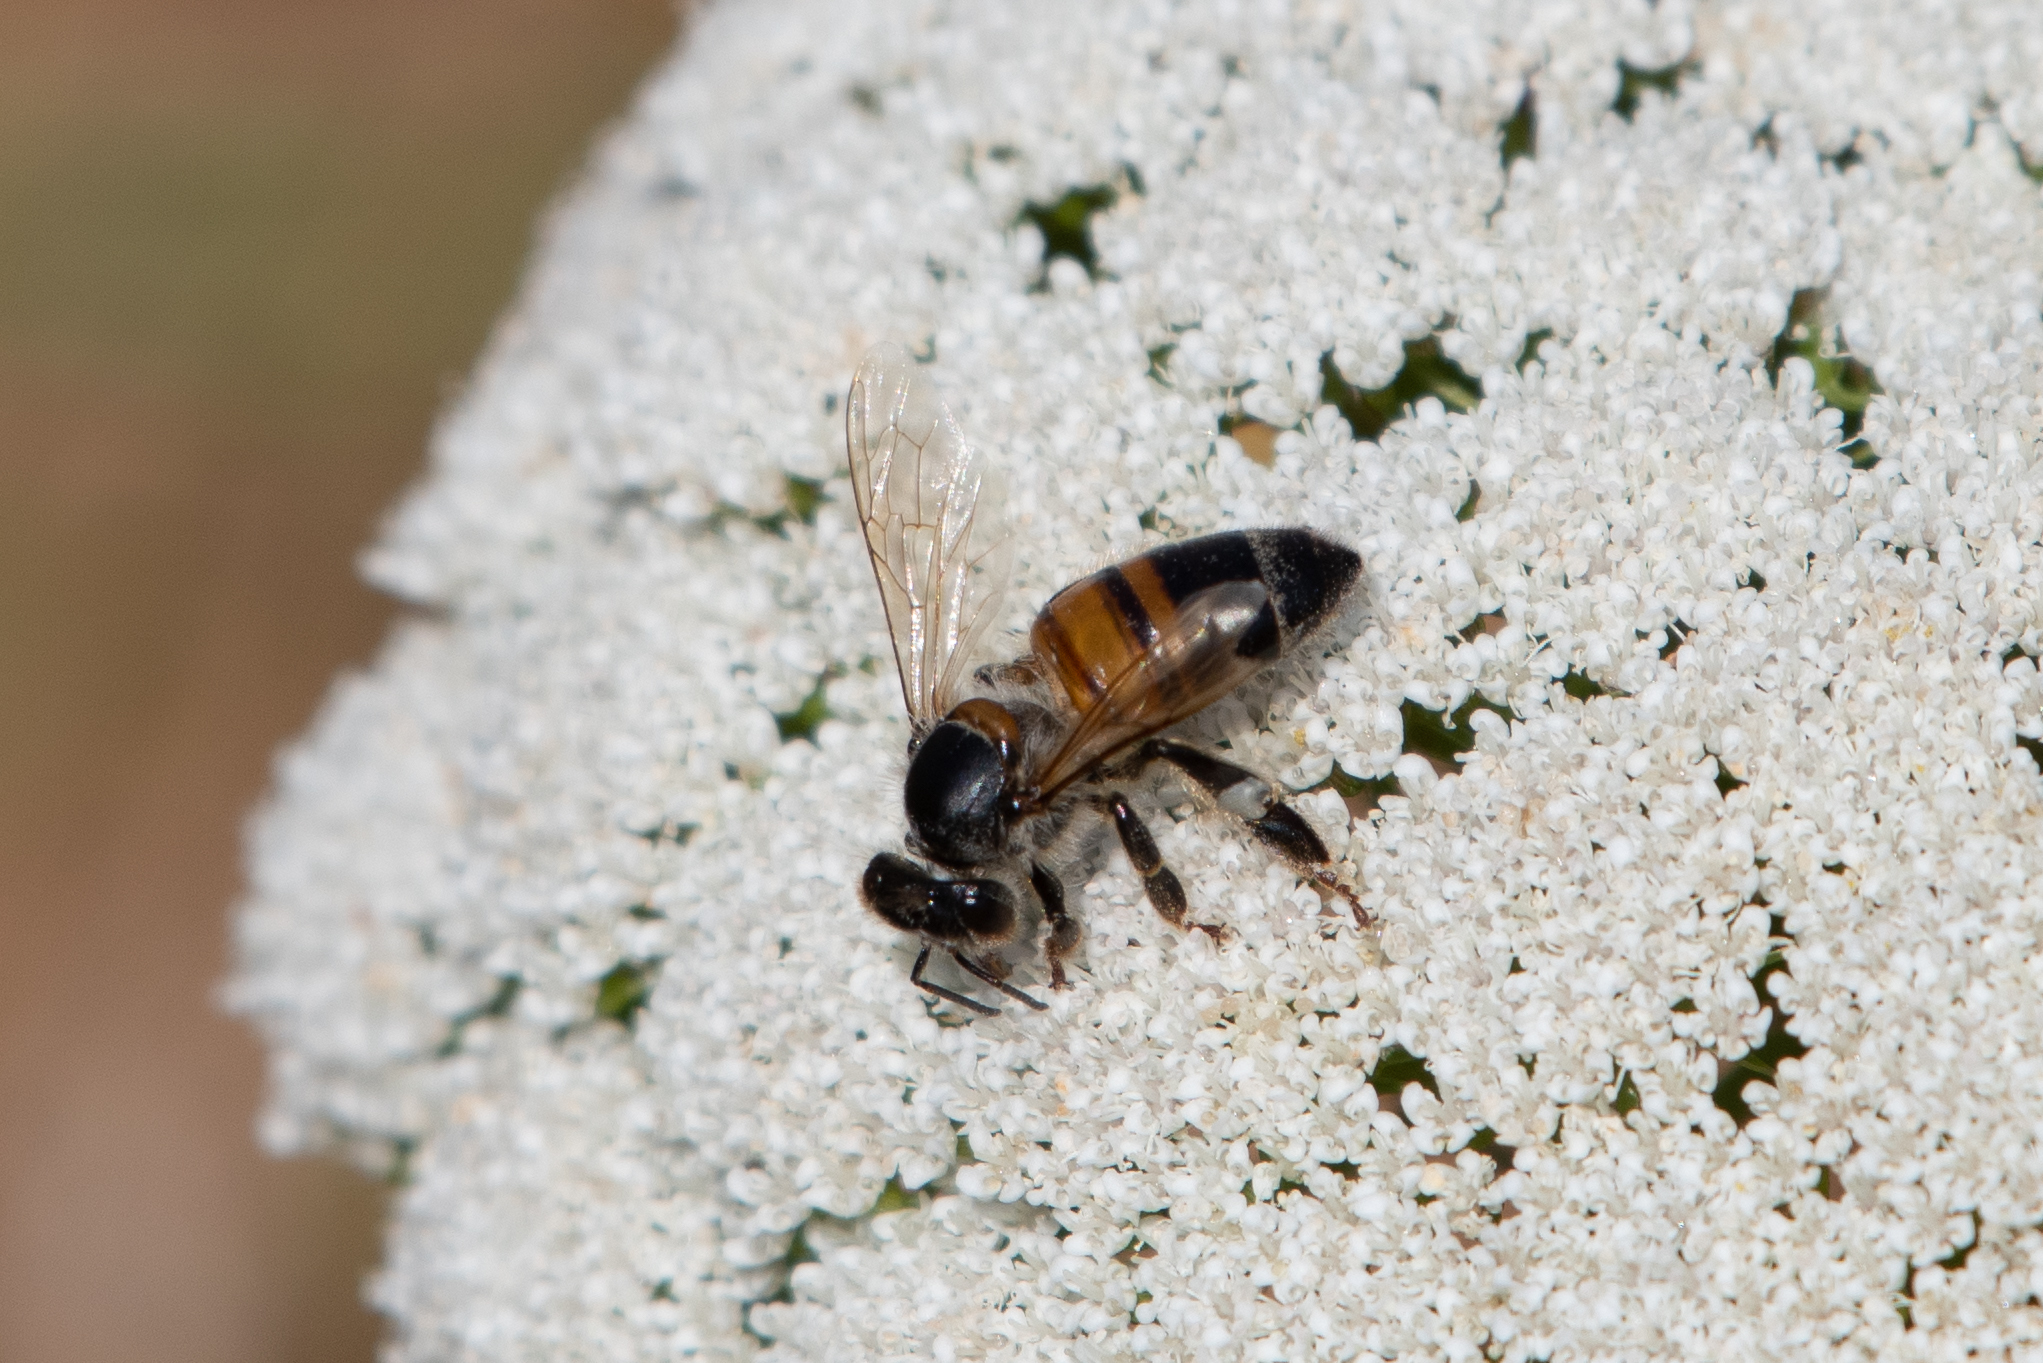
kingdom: Animalia
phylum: Arthropoda
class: Insecta
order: Hymenoptera
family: Apidae
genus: Apis
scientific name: Apis mellifera
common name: Honey bee
